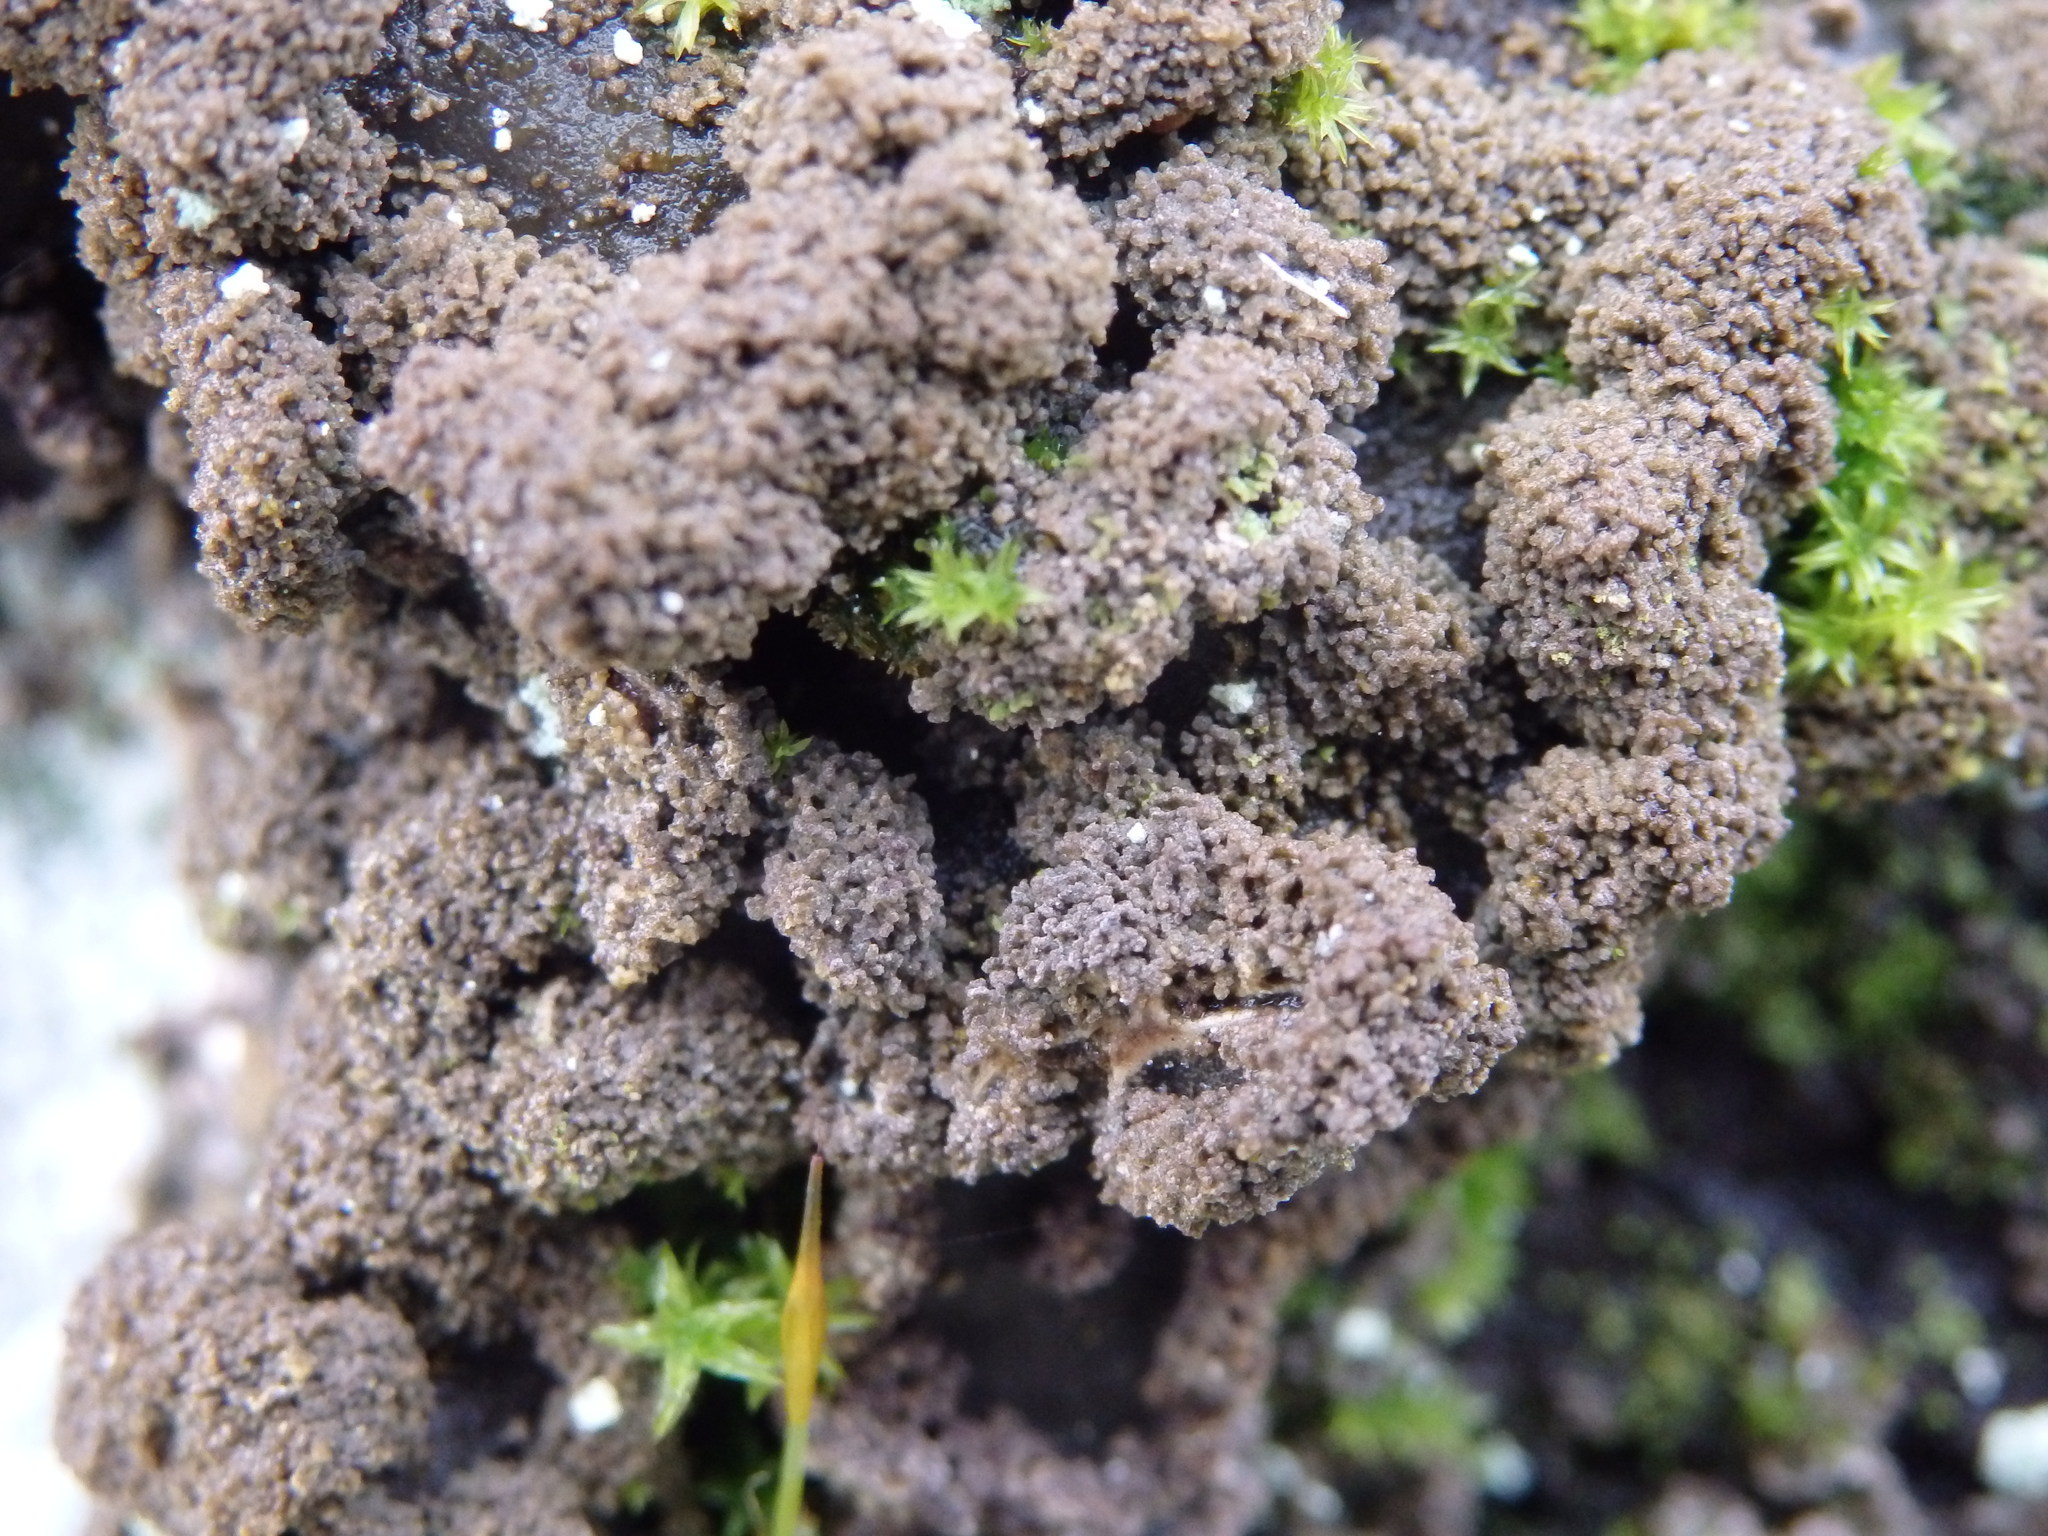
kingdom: Fungi
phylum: Ascomycota
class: Lecanoromycetes
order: Peltigerales
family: Lobariaceae
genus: Sticta
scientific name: Sticta limbata
